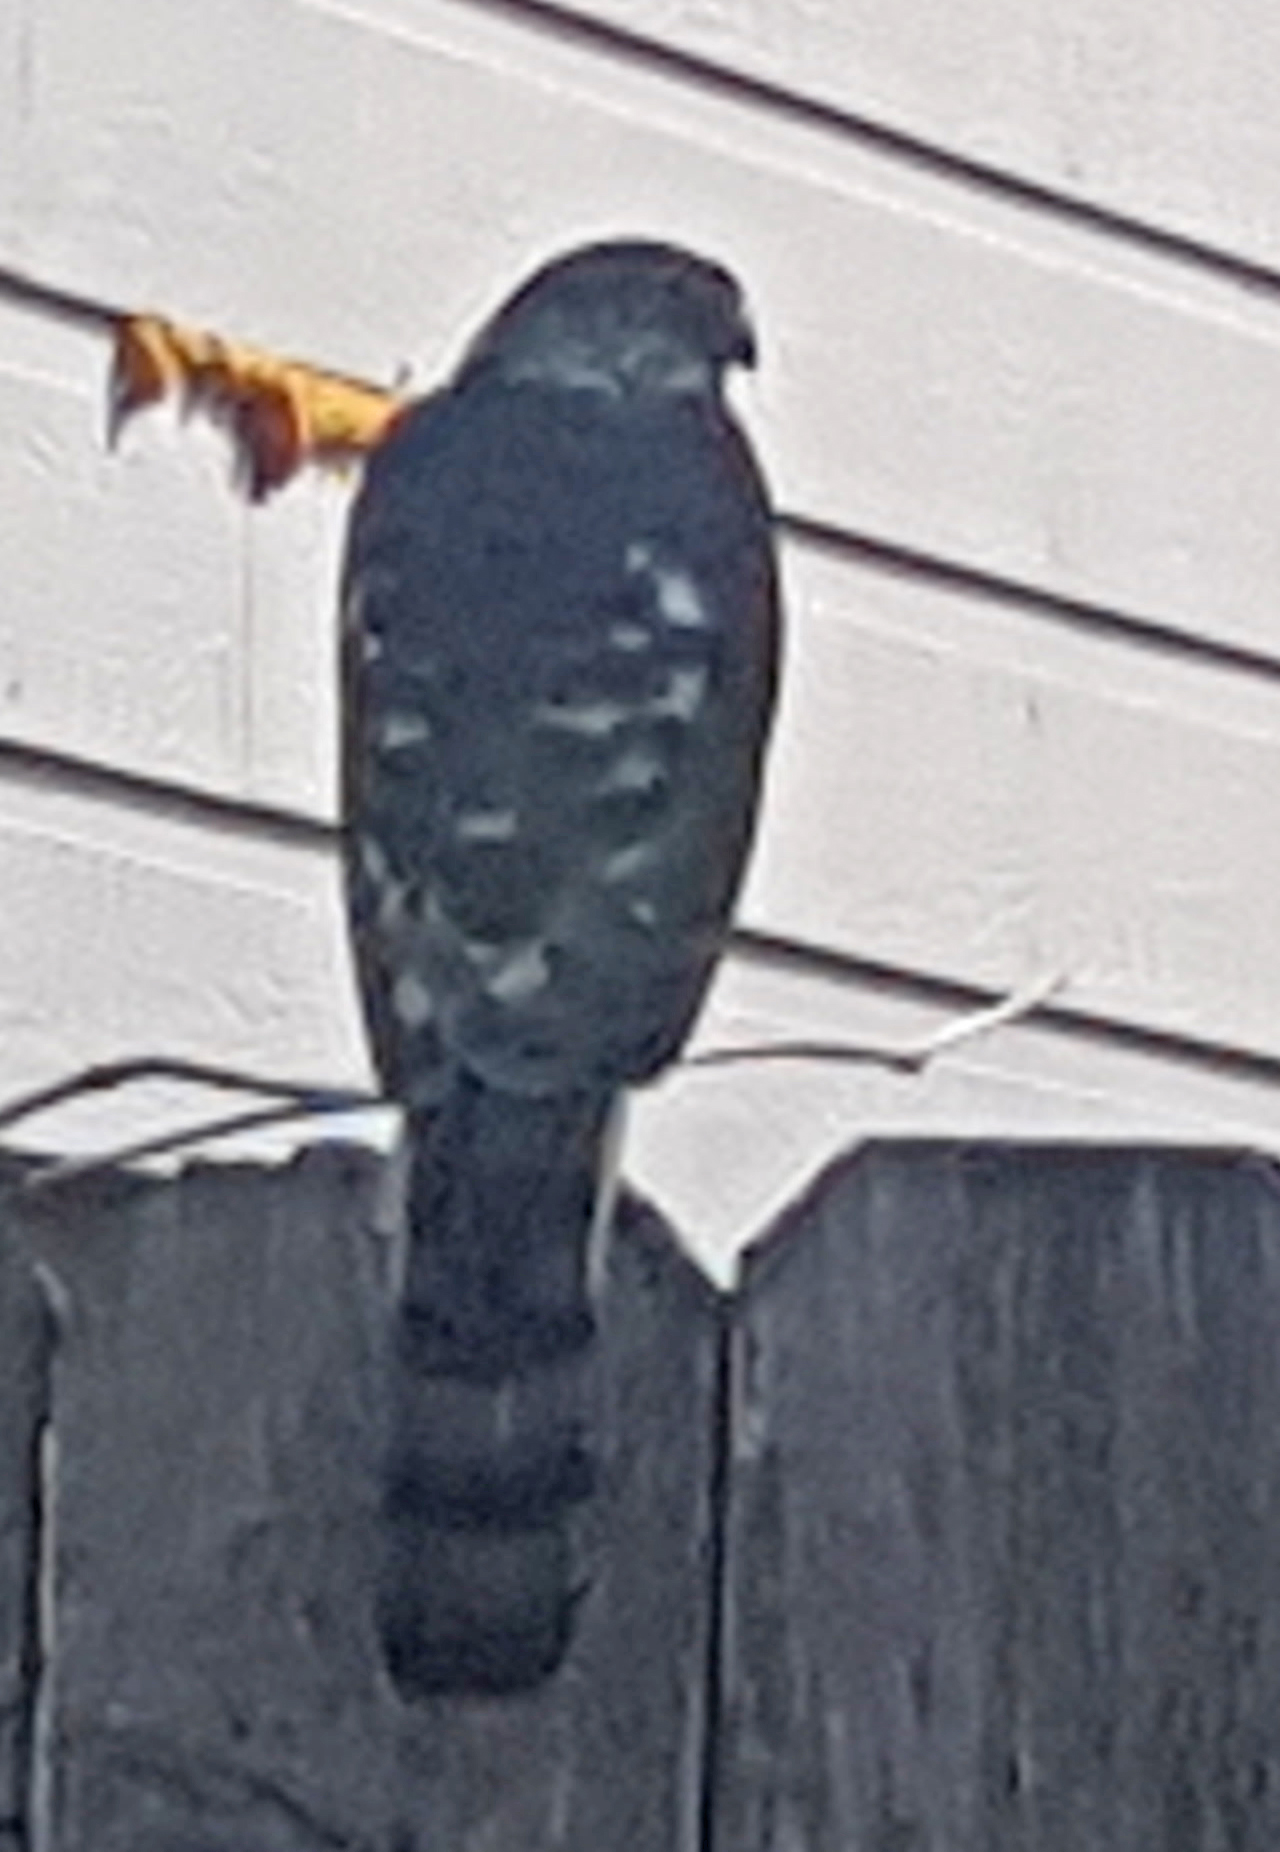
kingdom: Animalia
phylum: Chordata
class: Aves
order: Accipitriformes
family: Accipitridae
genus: Accipiter
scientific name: Accipiter striatus
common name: Sharp-shinned hawk
